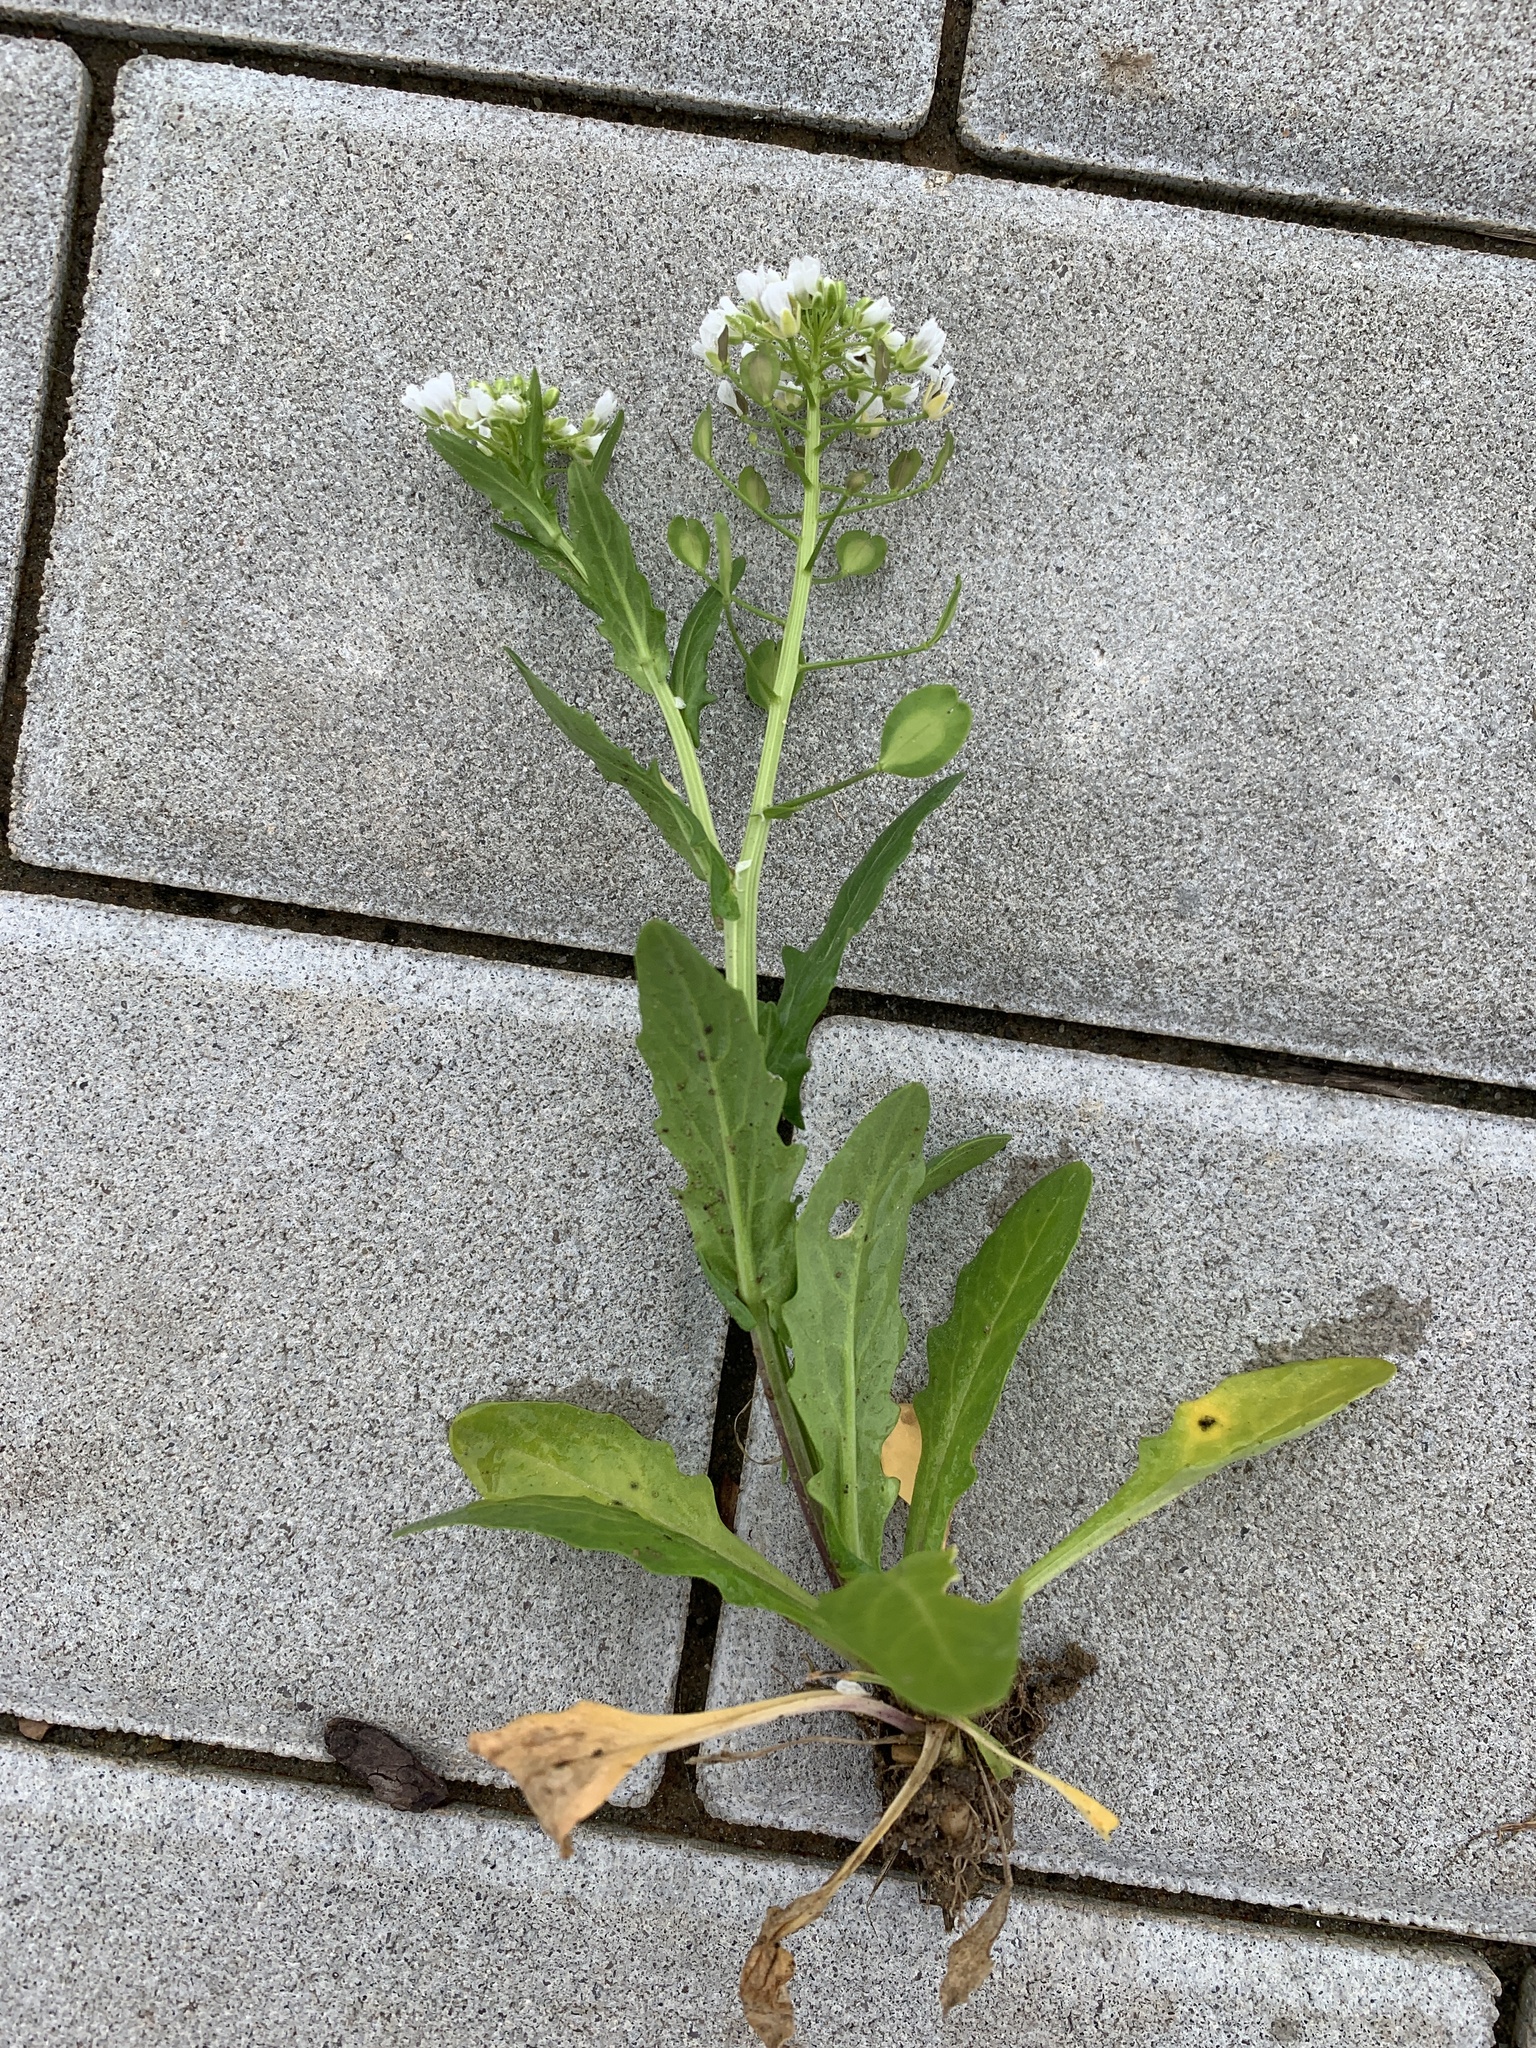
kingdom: Plantae
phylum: Tracheophyta
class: Magnoliopsida
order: Brassicales
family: Brassicaceae
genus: Thlaspi
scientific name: Thlaspi arvense
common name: Field pennycress
